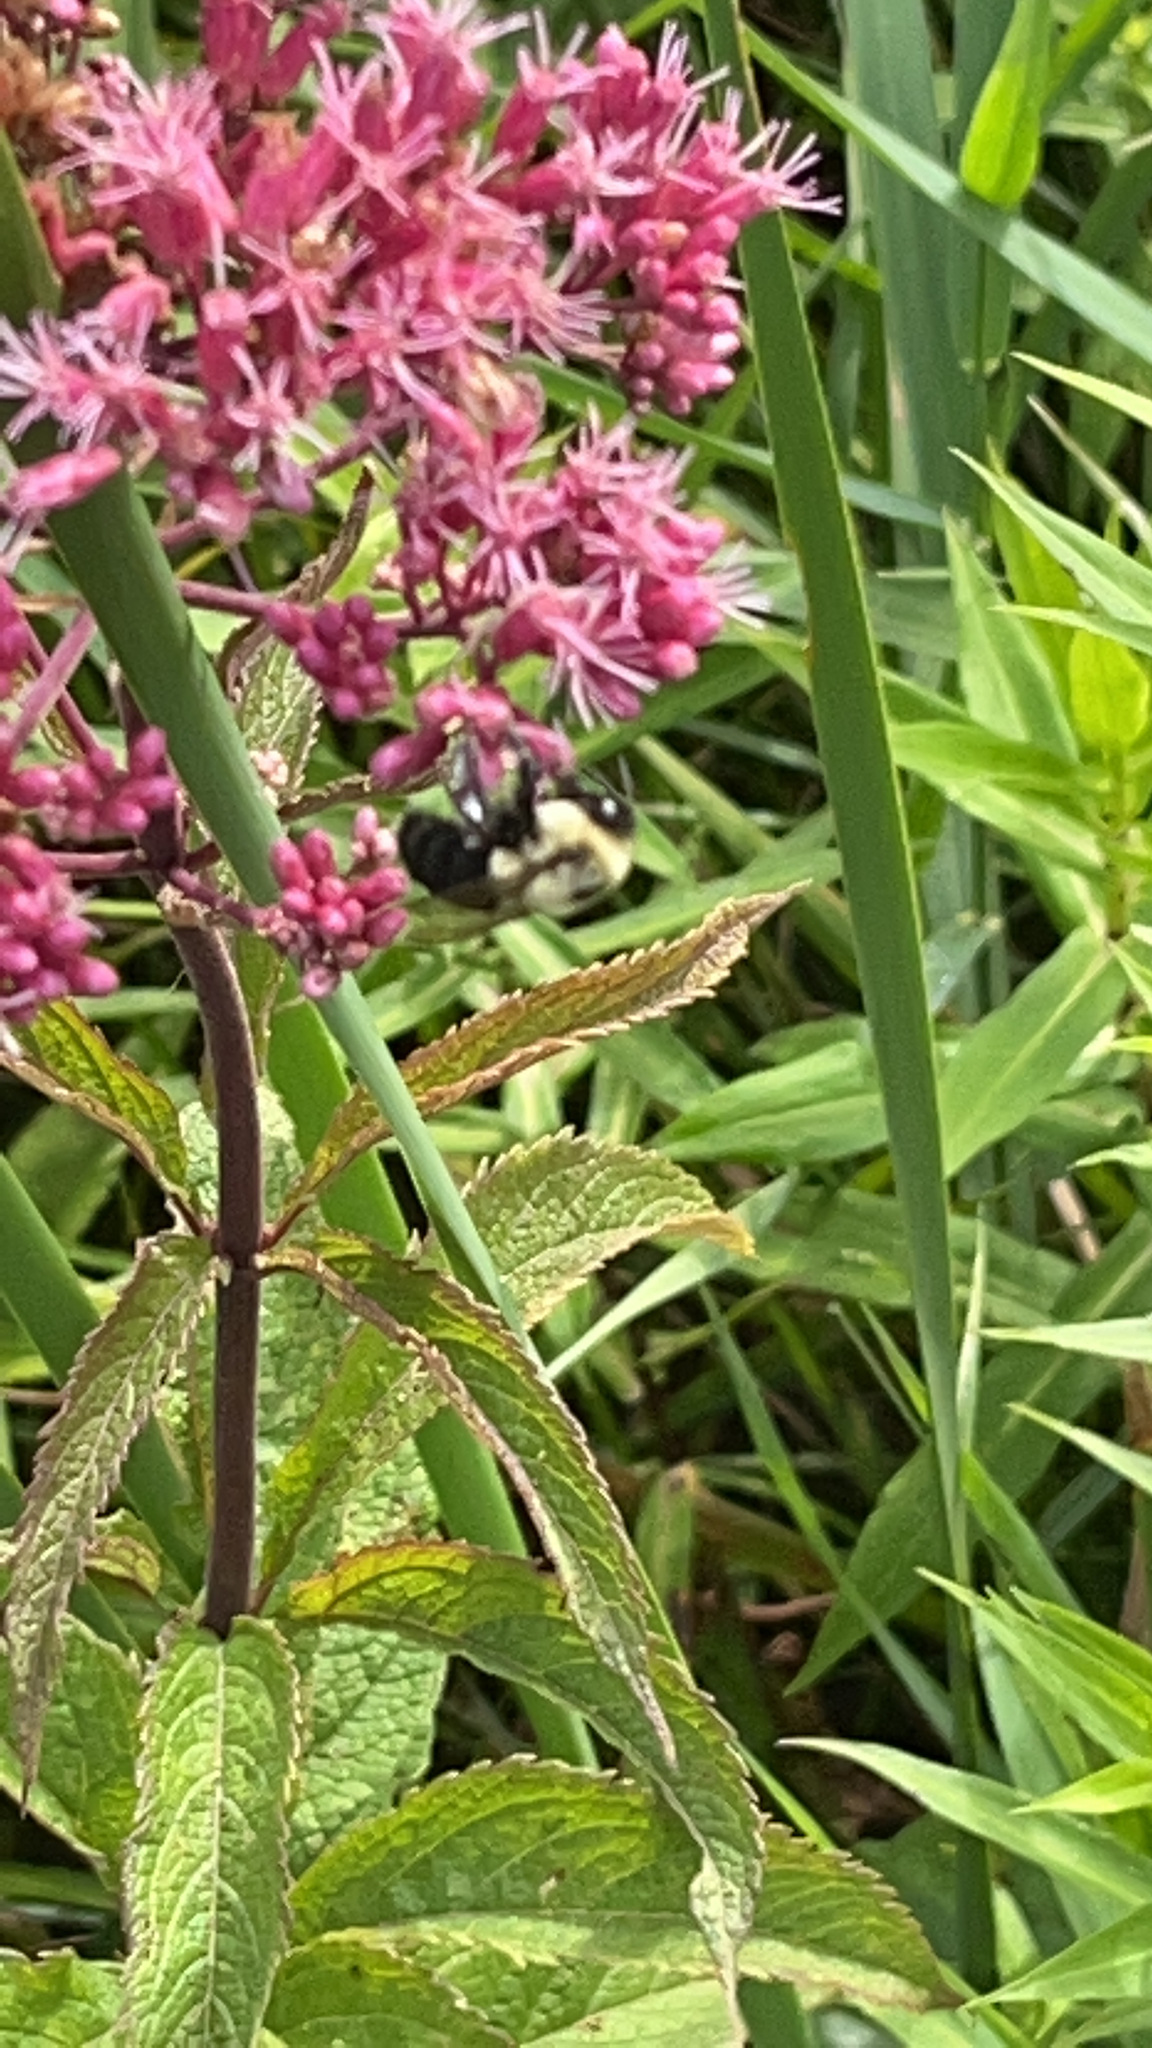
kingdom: Animalia
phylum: Arthropoda
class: Insecta
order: Hymenoptera
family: Apidae
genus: Bombus
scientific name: Bombus impatiens
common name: Common eastern bumble bee
